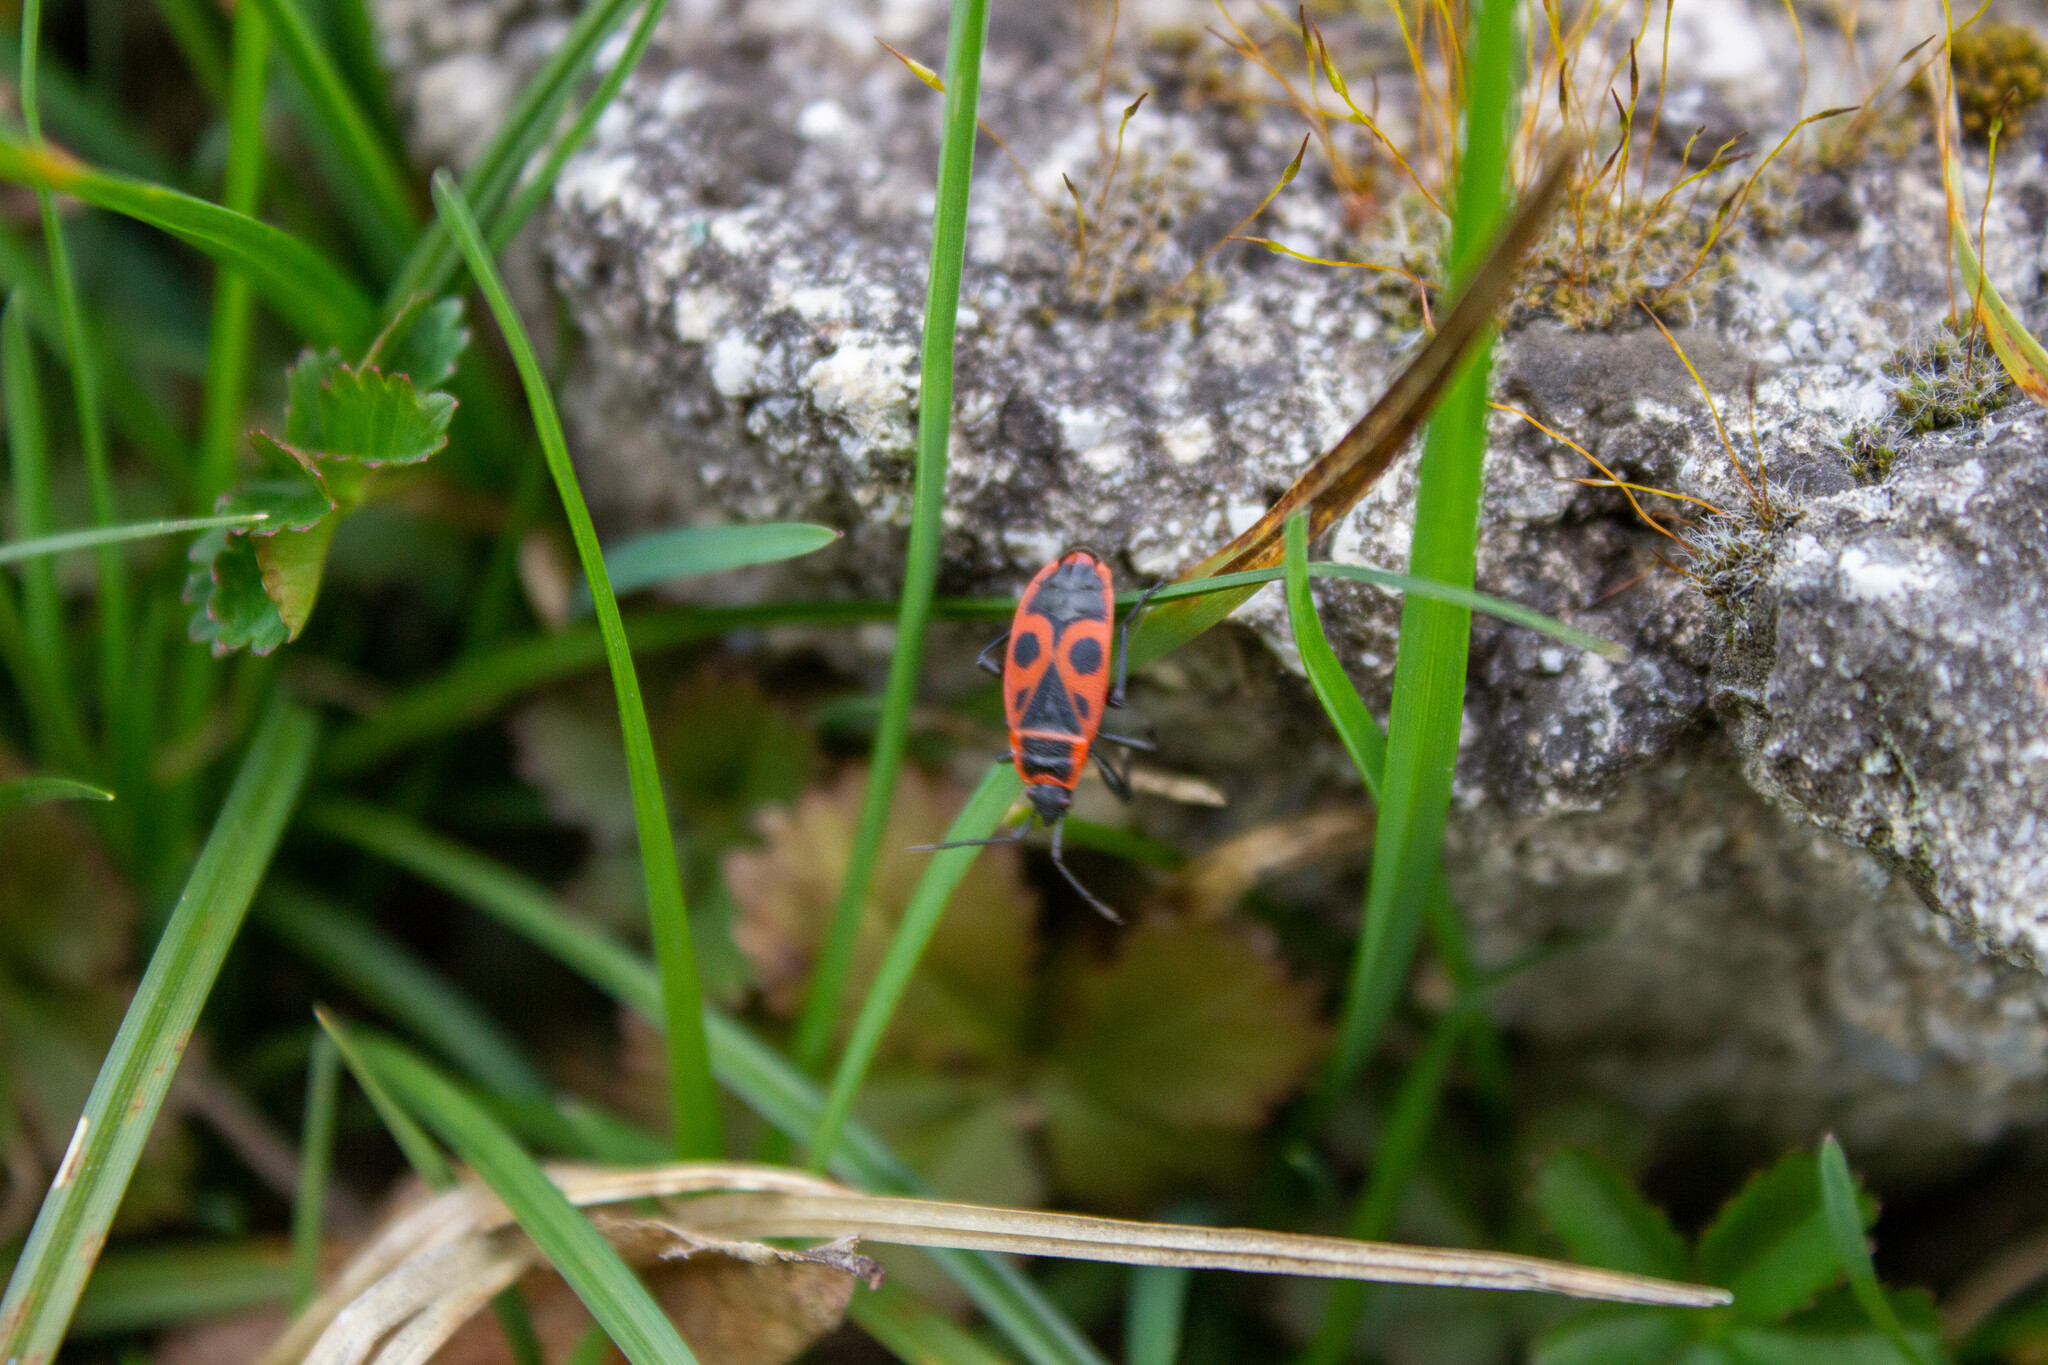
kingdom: Animalia
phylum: Arthropoda
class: Insecta
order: Hemiptera
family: Pyrrhocoridae
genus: Pyrrhocoris
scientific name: Pyrrhocoris apterus
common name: Firebug
